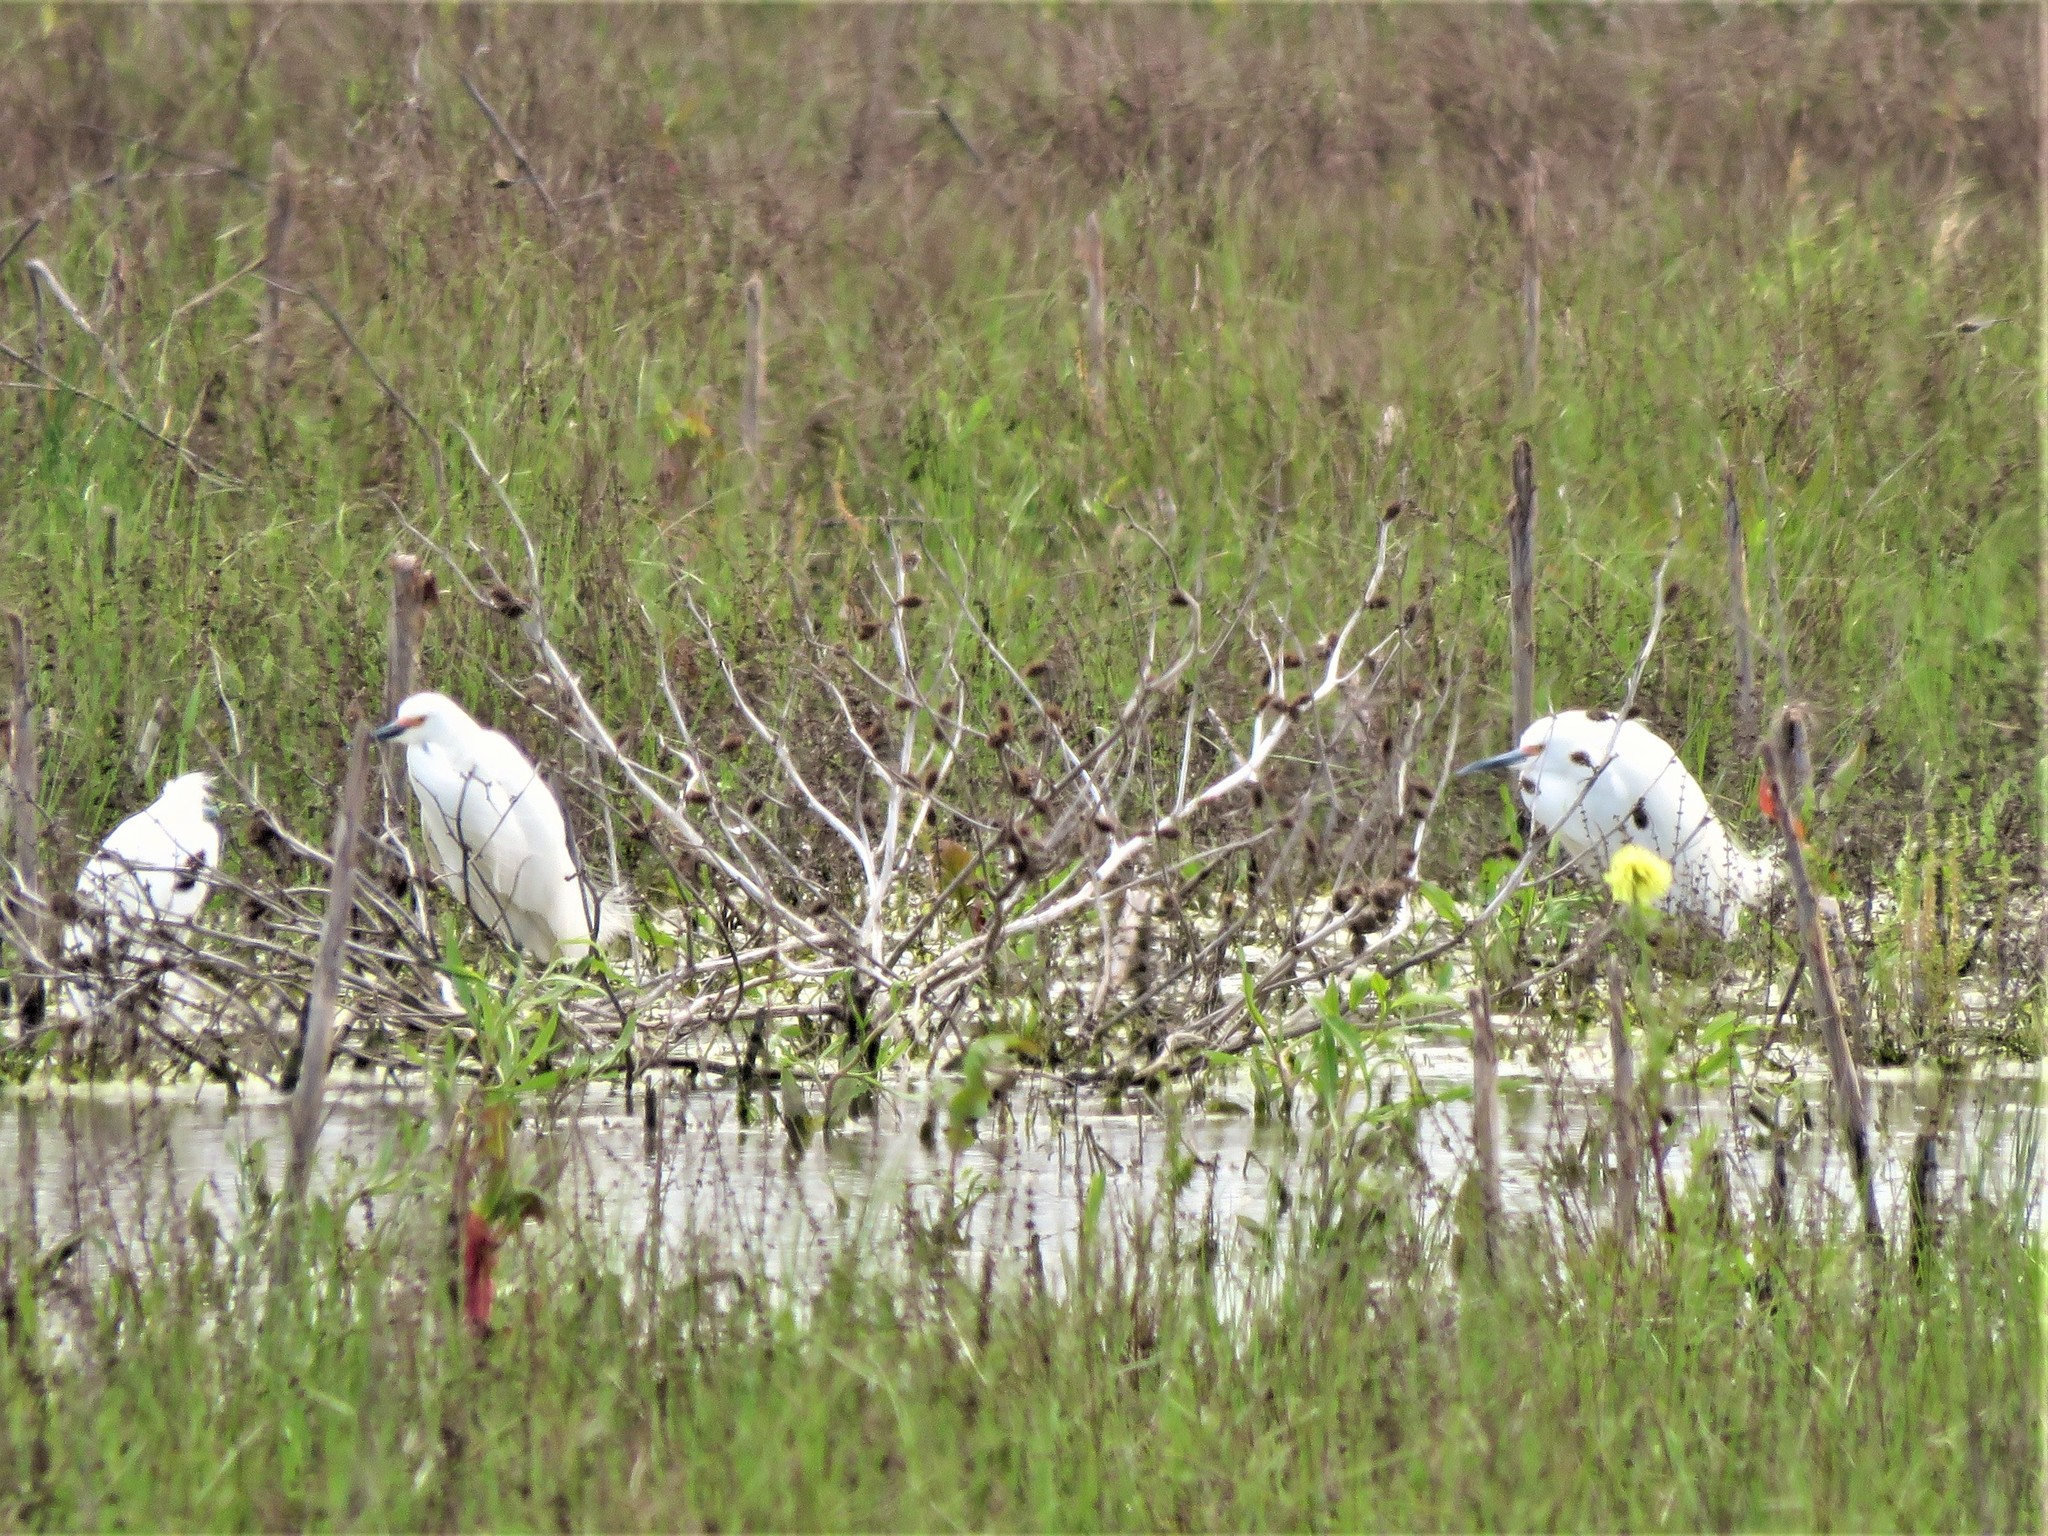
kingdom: Animalia
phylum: Chordata
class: Aves
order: Pelecaniformes
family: Ardeidae
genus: Egretta
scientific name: Egretta thula
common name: Snowy egret
